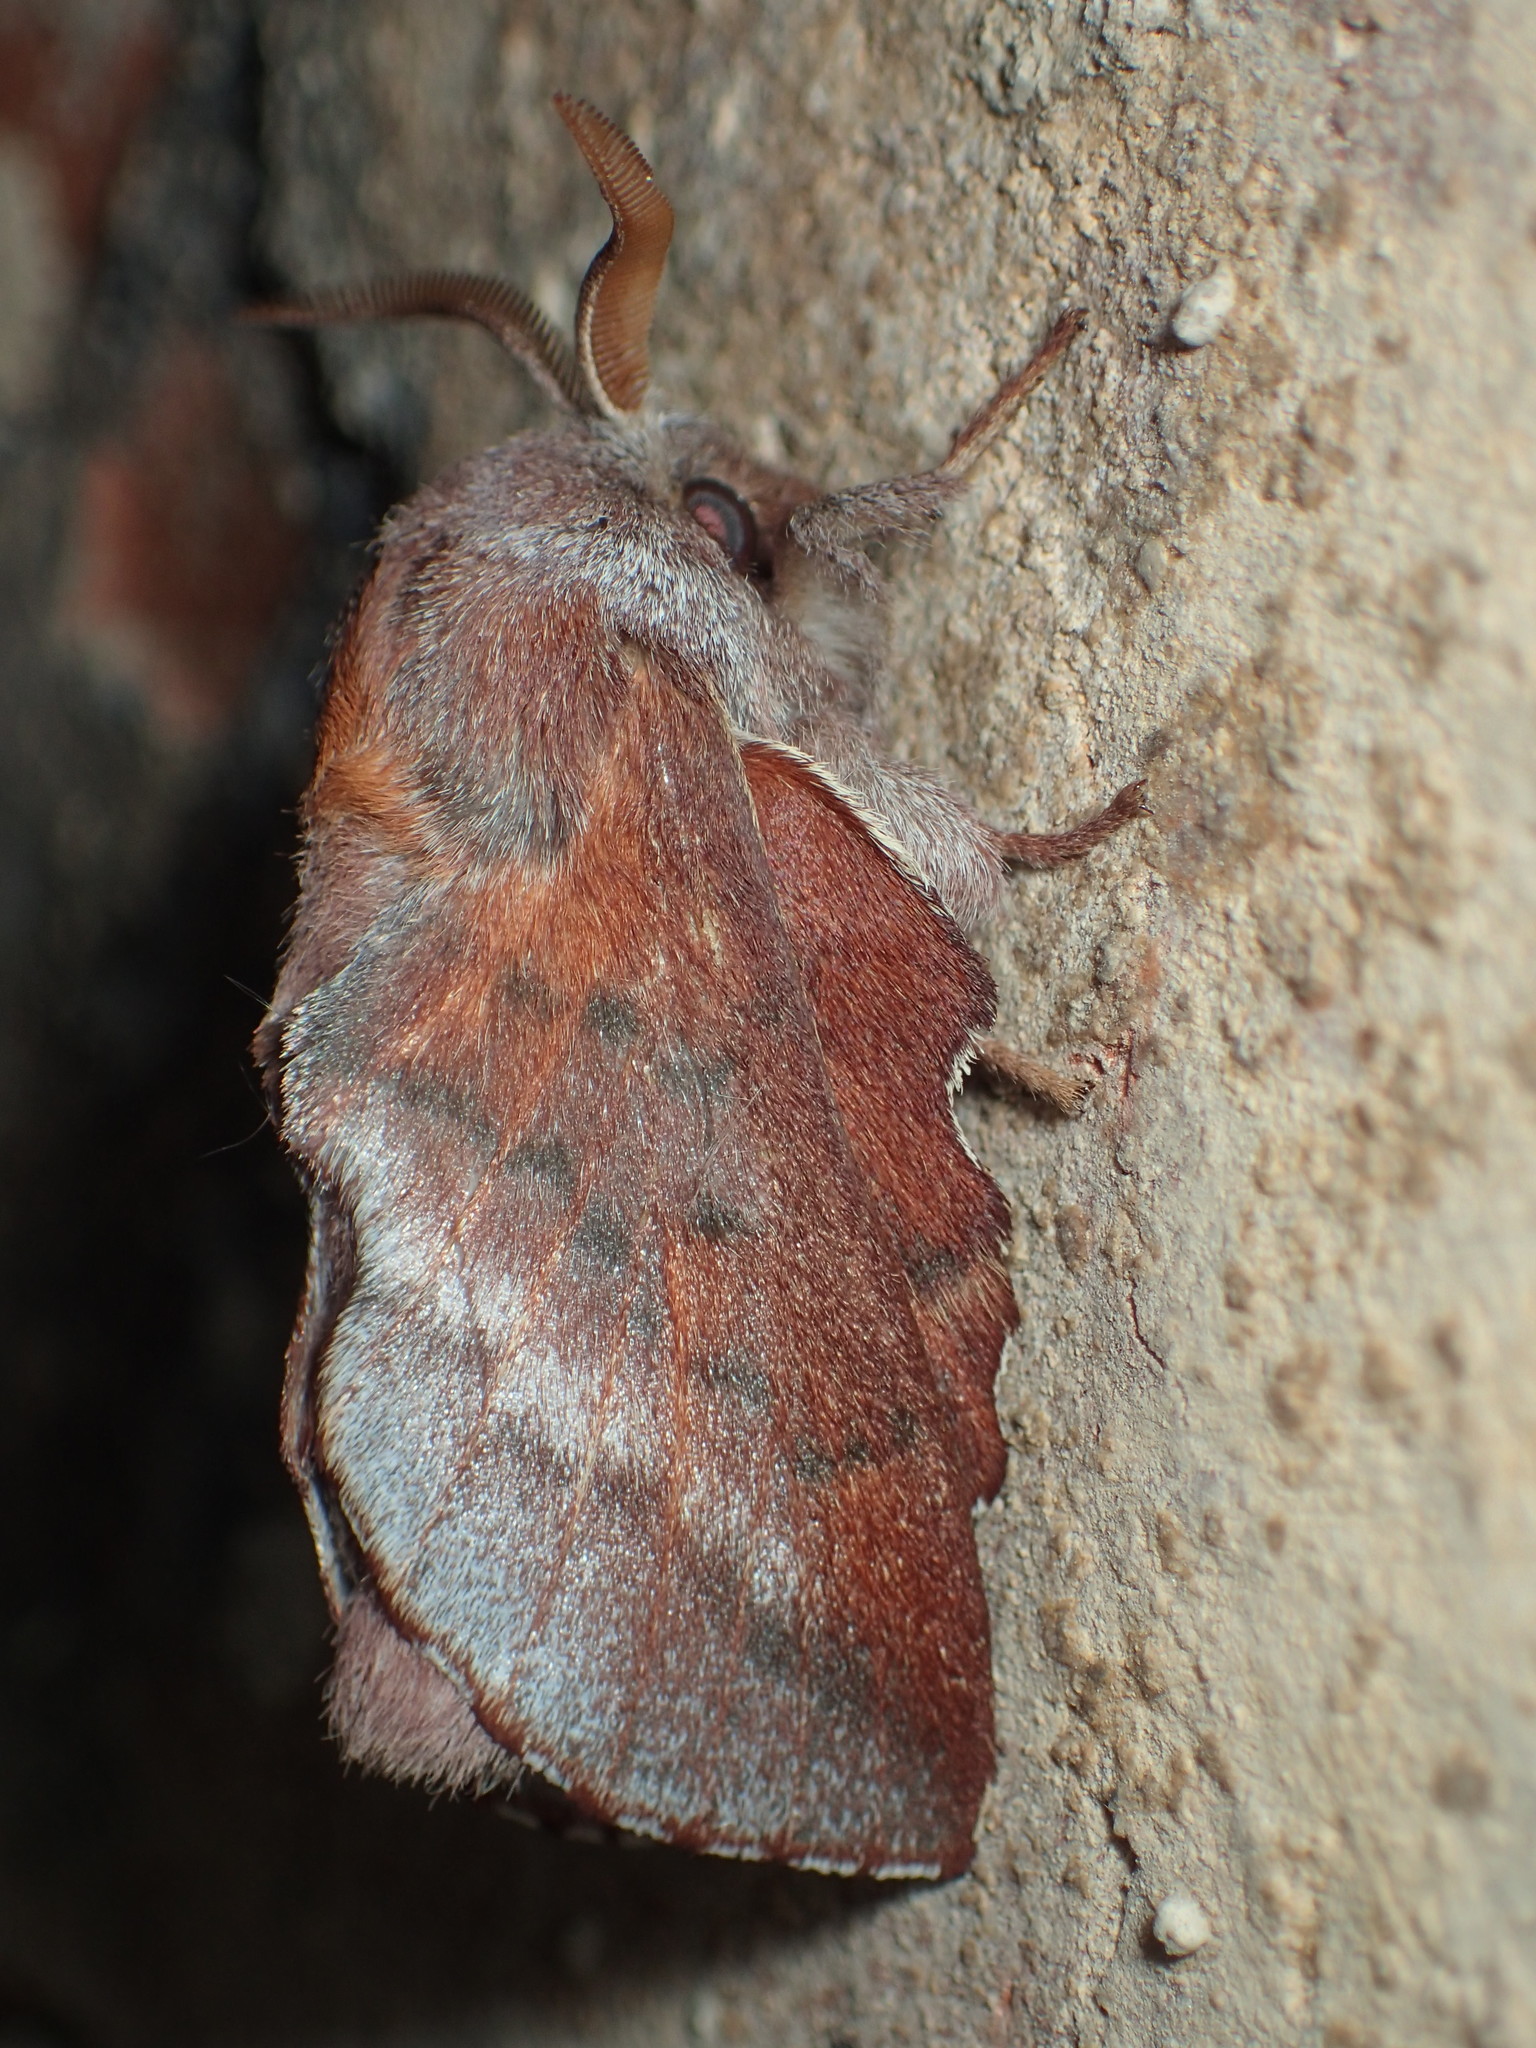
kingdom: Animalia
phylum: Arthropoda
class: Insecta
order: Lepidoptera
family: Lasiocampidae
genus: Phyllodesma
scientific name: Phyllodesma americana
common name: American lappet moth
